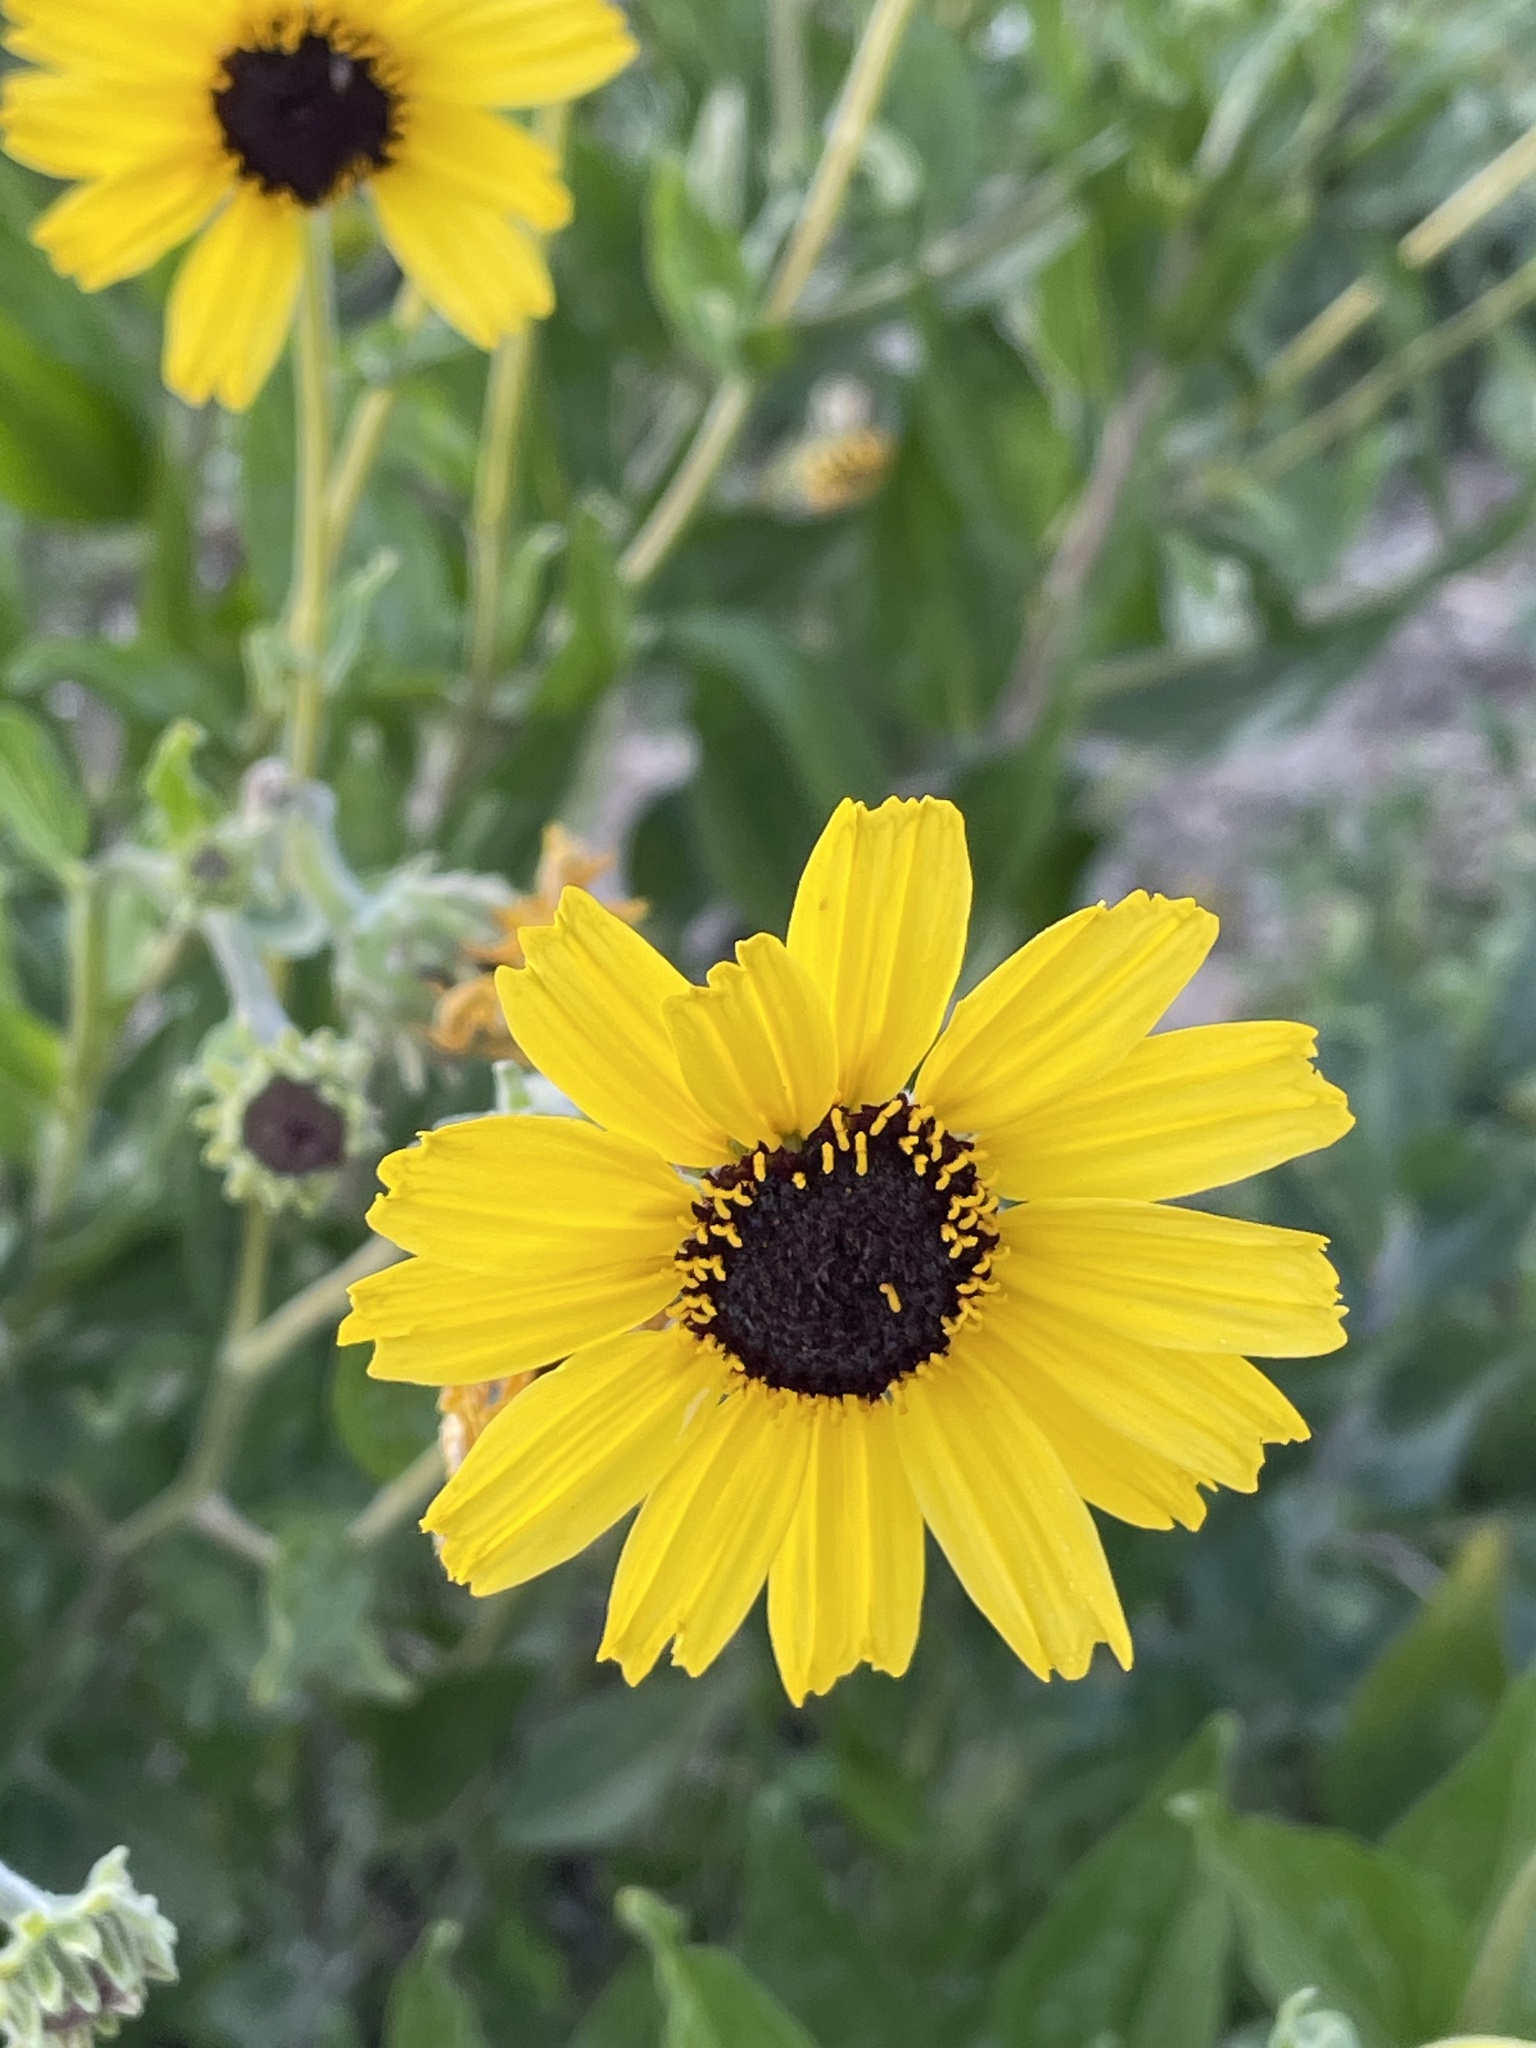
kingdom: Plantae
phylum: Tracheophyta
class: Magnoliopsida
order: Asterales
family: Asteraceae
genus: Encelia
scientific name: Encelia californica
